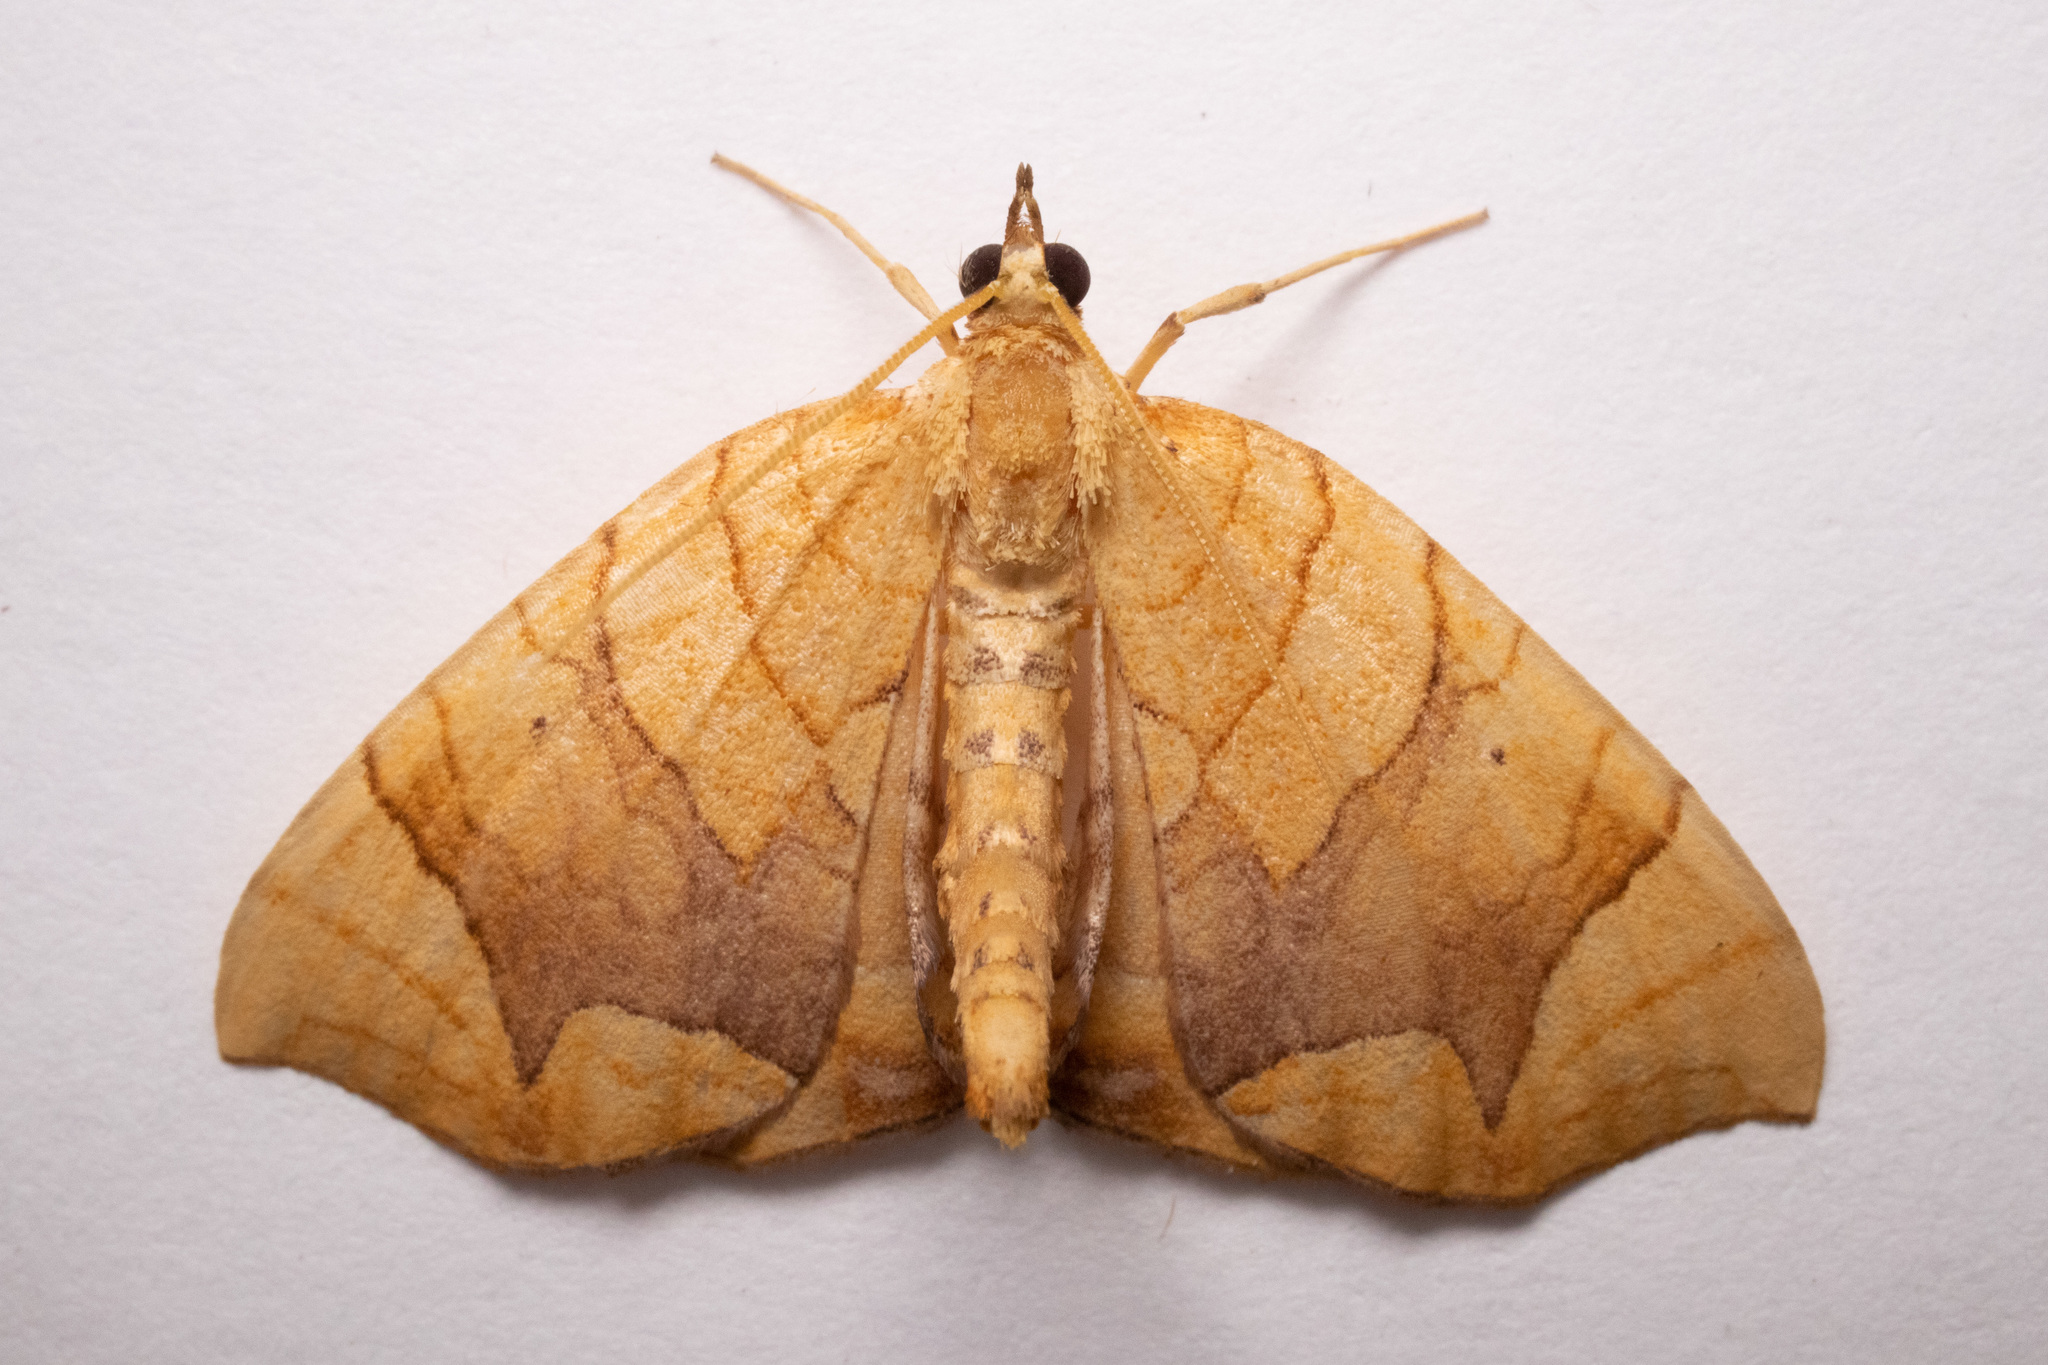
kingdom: Animalia
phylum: Arthropoda
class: Insecta
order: Lepidoptera
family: Geometridae
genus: Eulithis
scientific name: Eulithis
